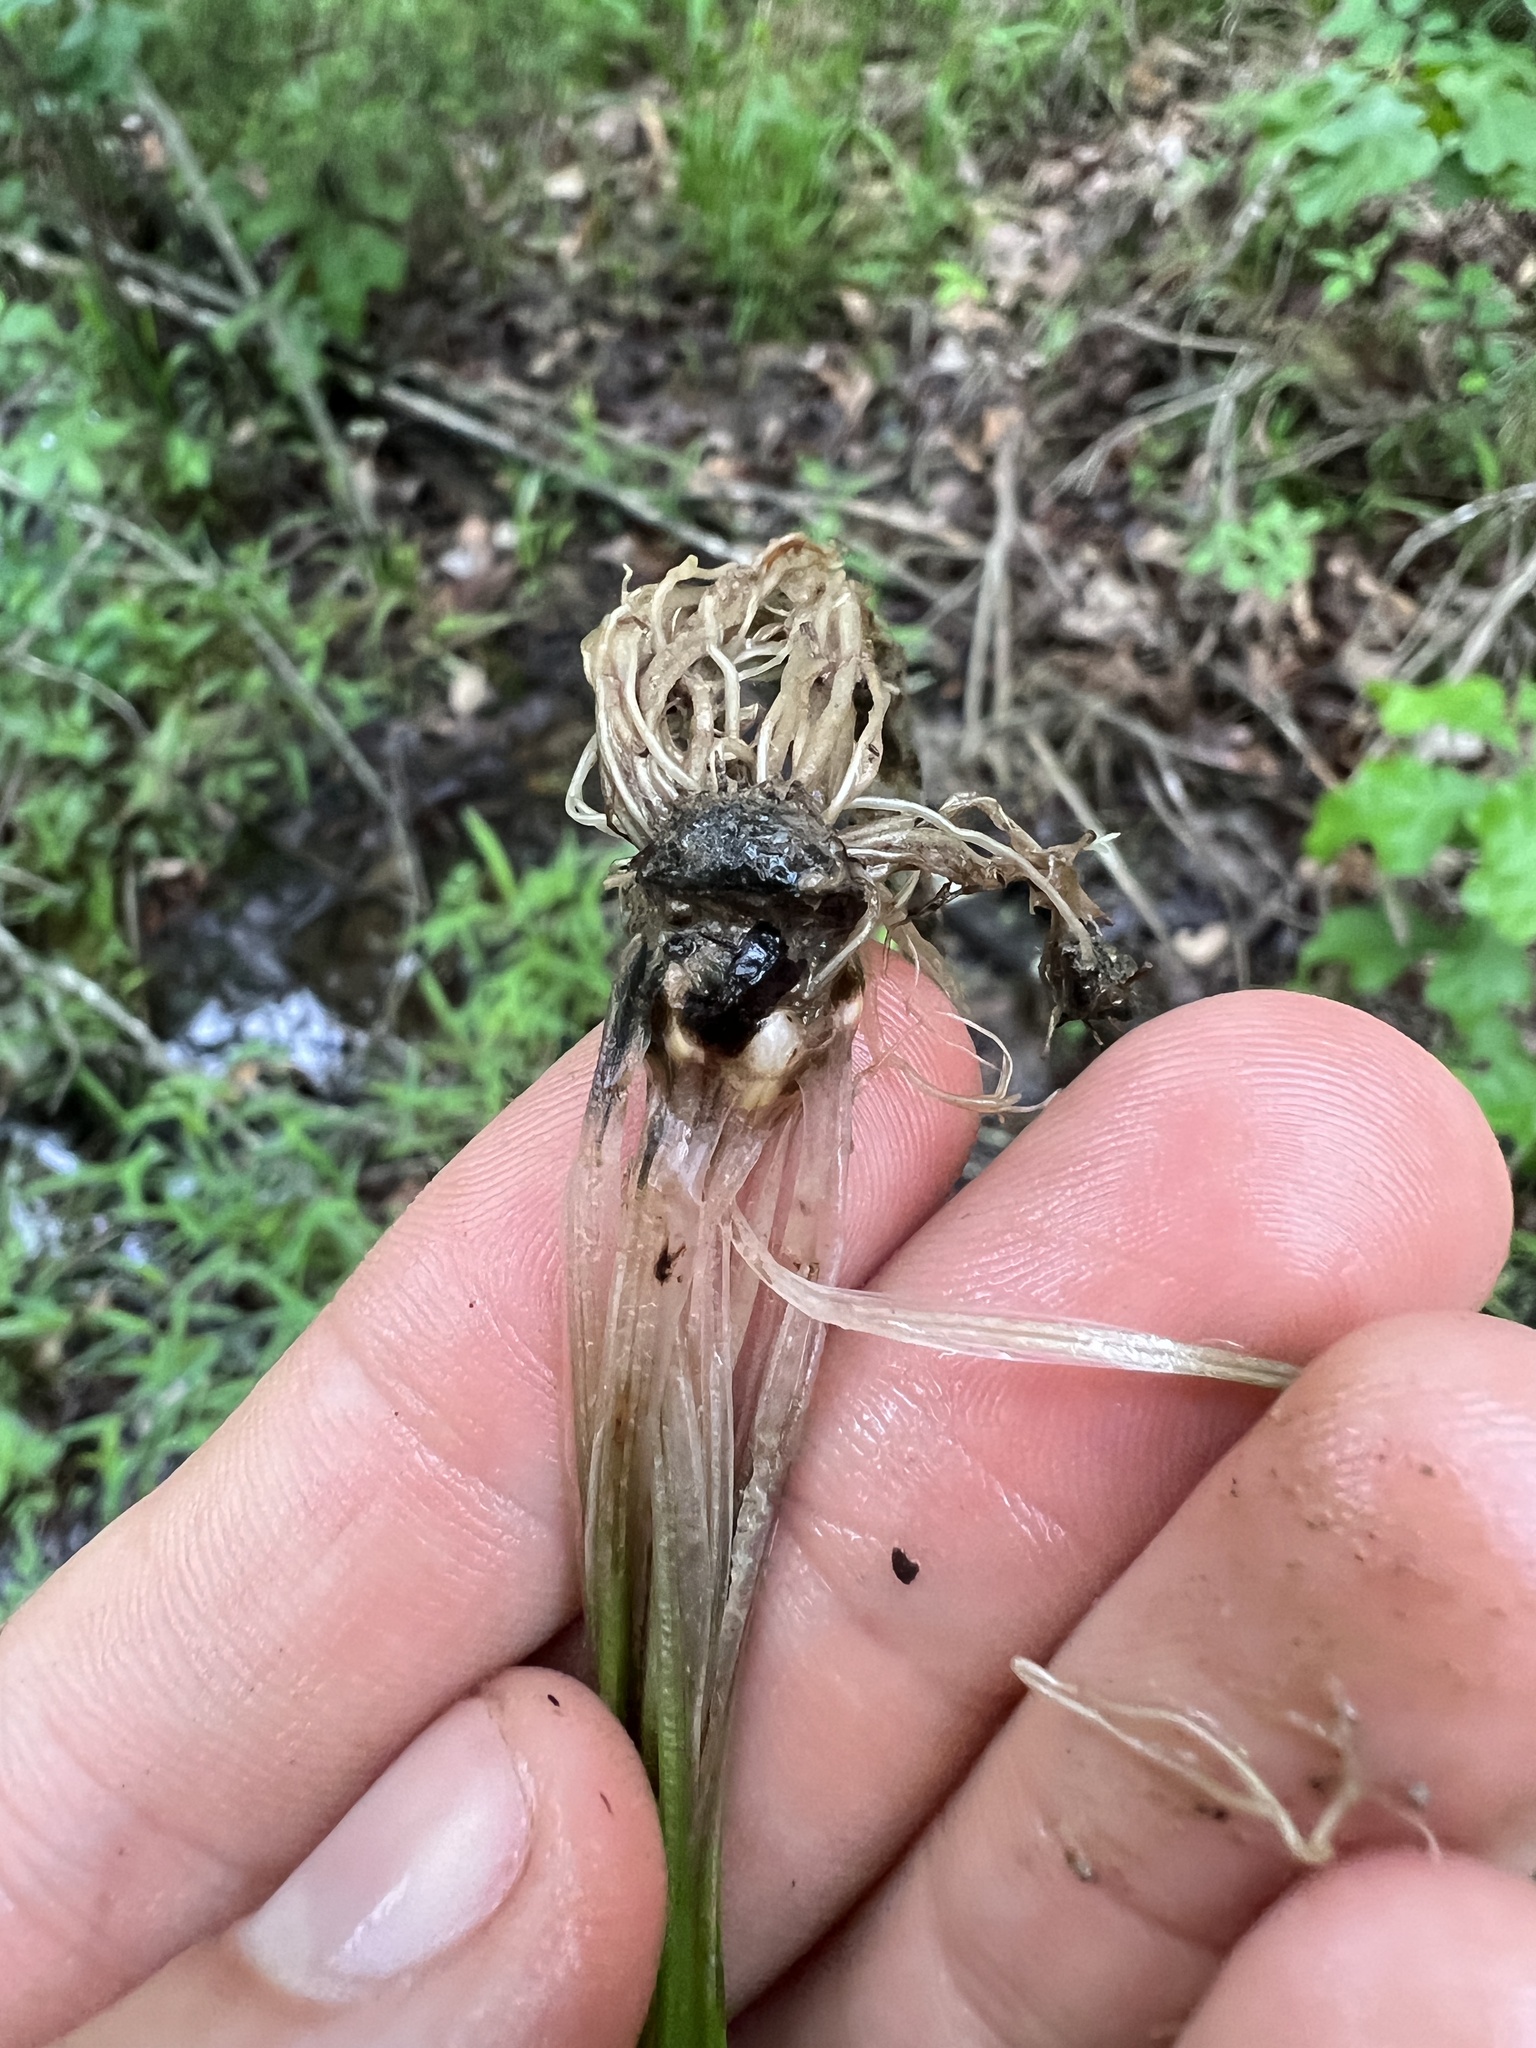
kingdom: Plantae
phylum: Tracheophyta
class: Lycopodiopsida
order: Isoetales
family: Isoetaceae
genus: Isoetes
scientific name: Isoetes melanopoda
